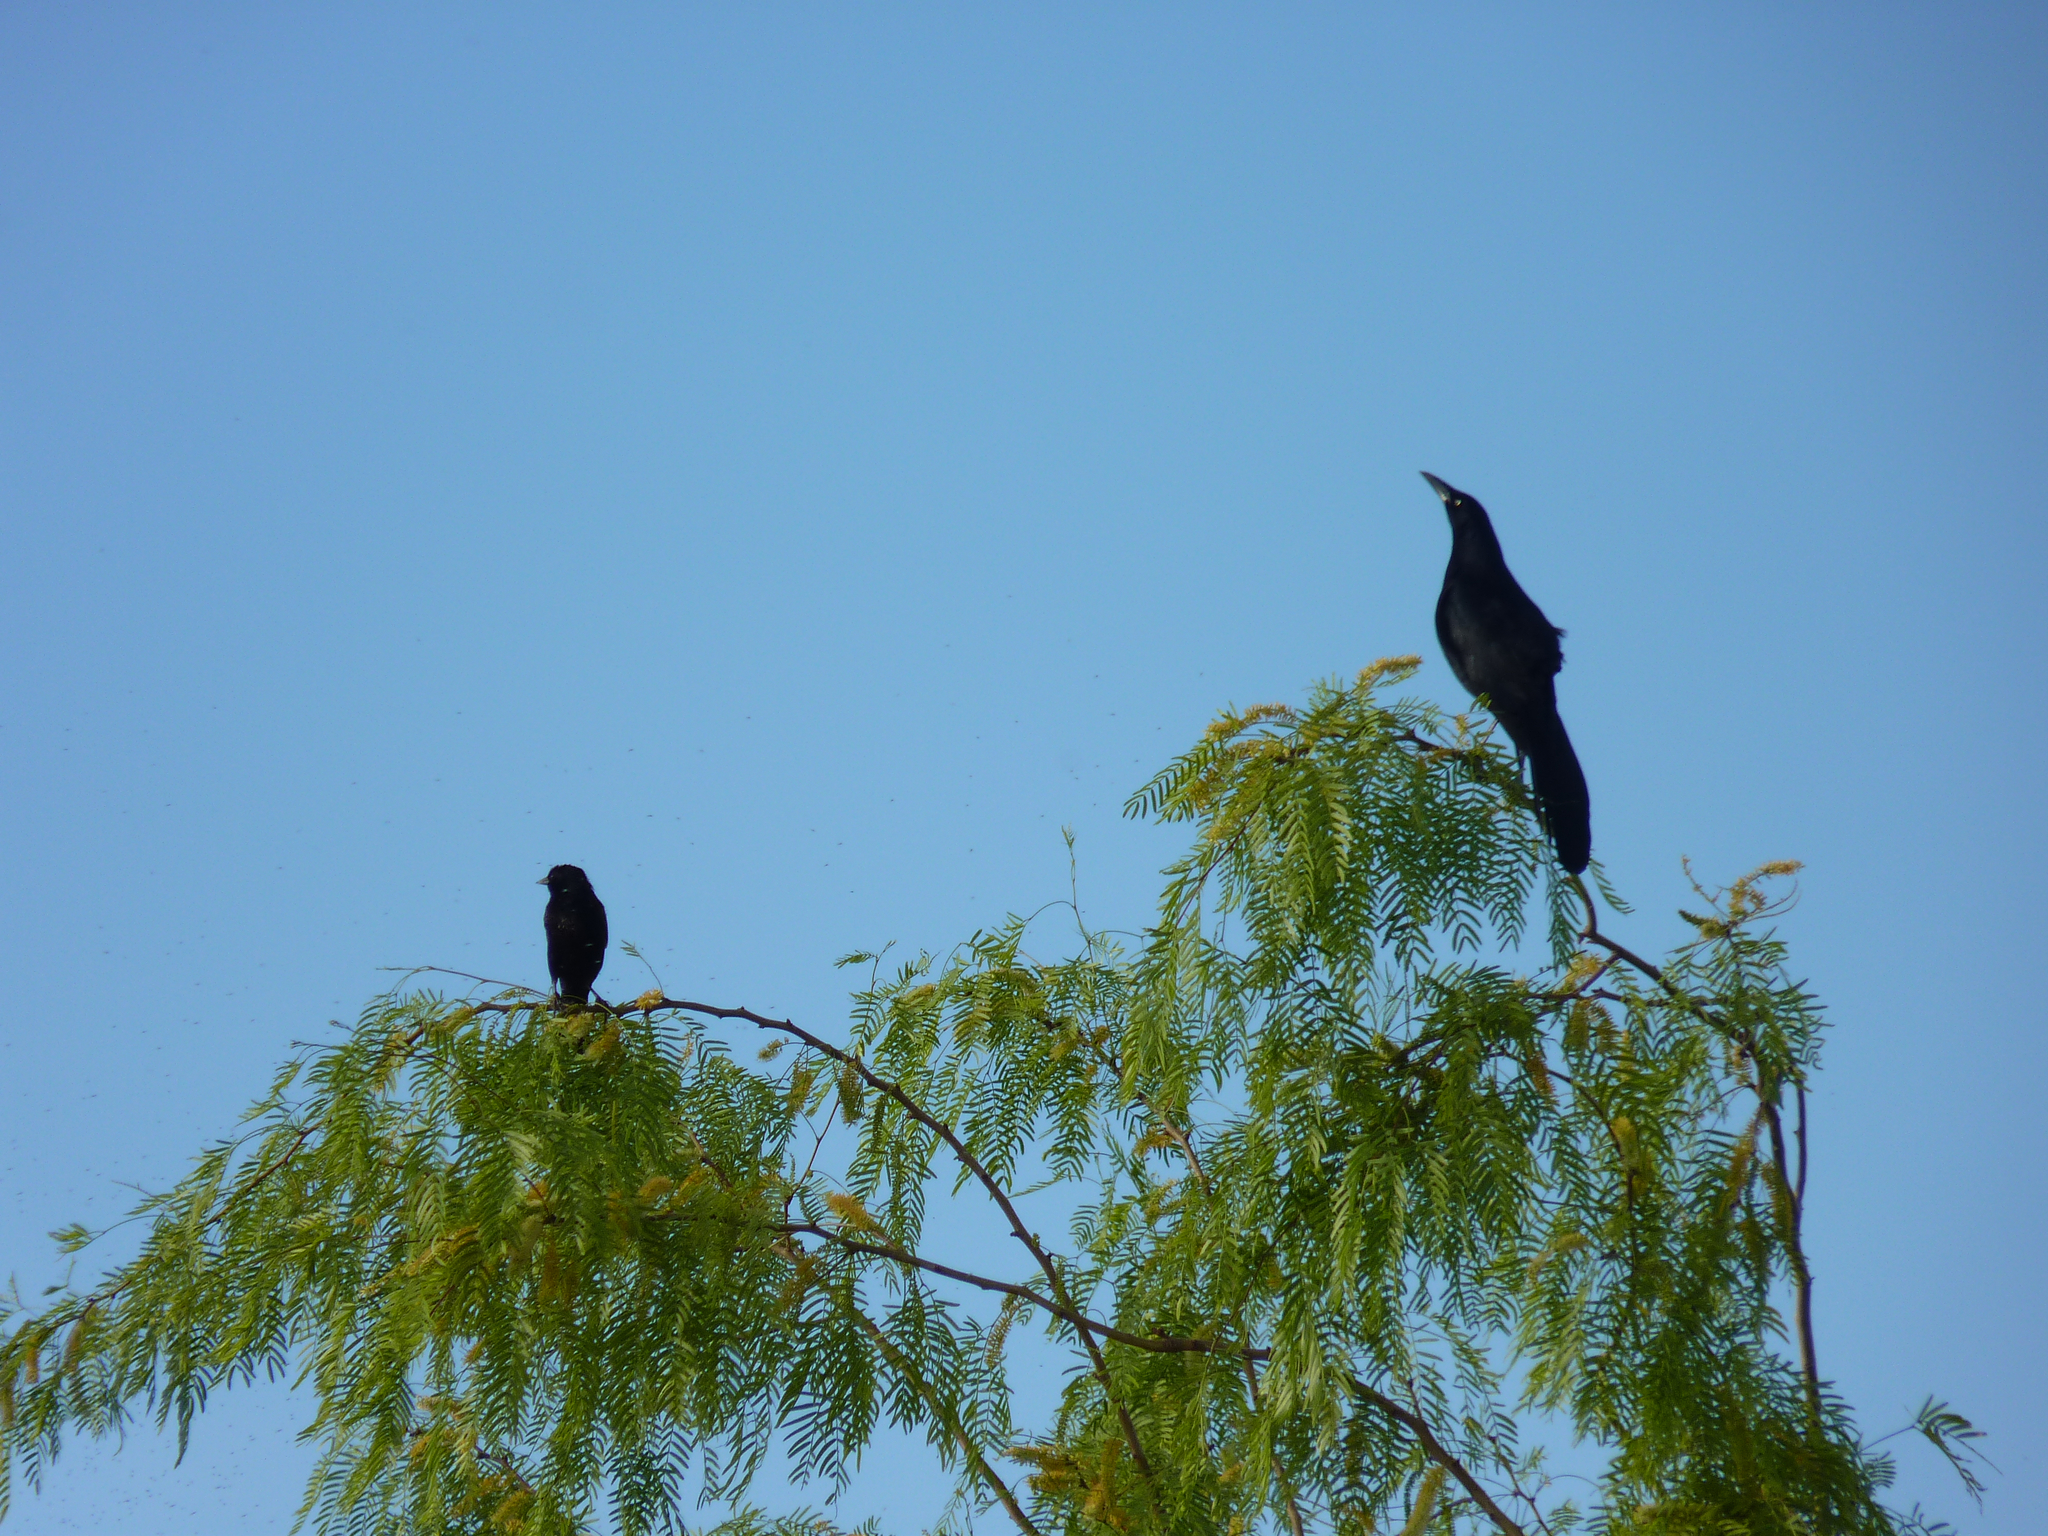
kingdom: Animalia
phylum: Chordata
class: Aves
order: Passeriformes
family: Icteridae
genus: Quiscalus
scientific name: Quiscalus mexicanus
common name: Great-tailed grackle
